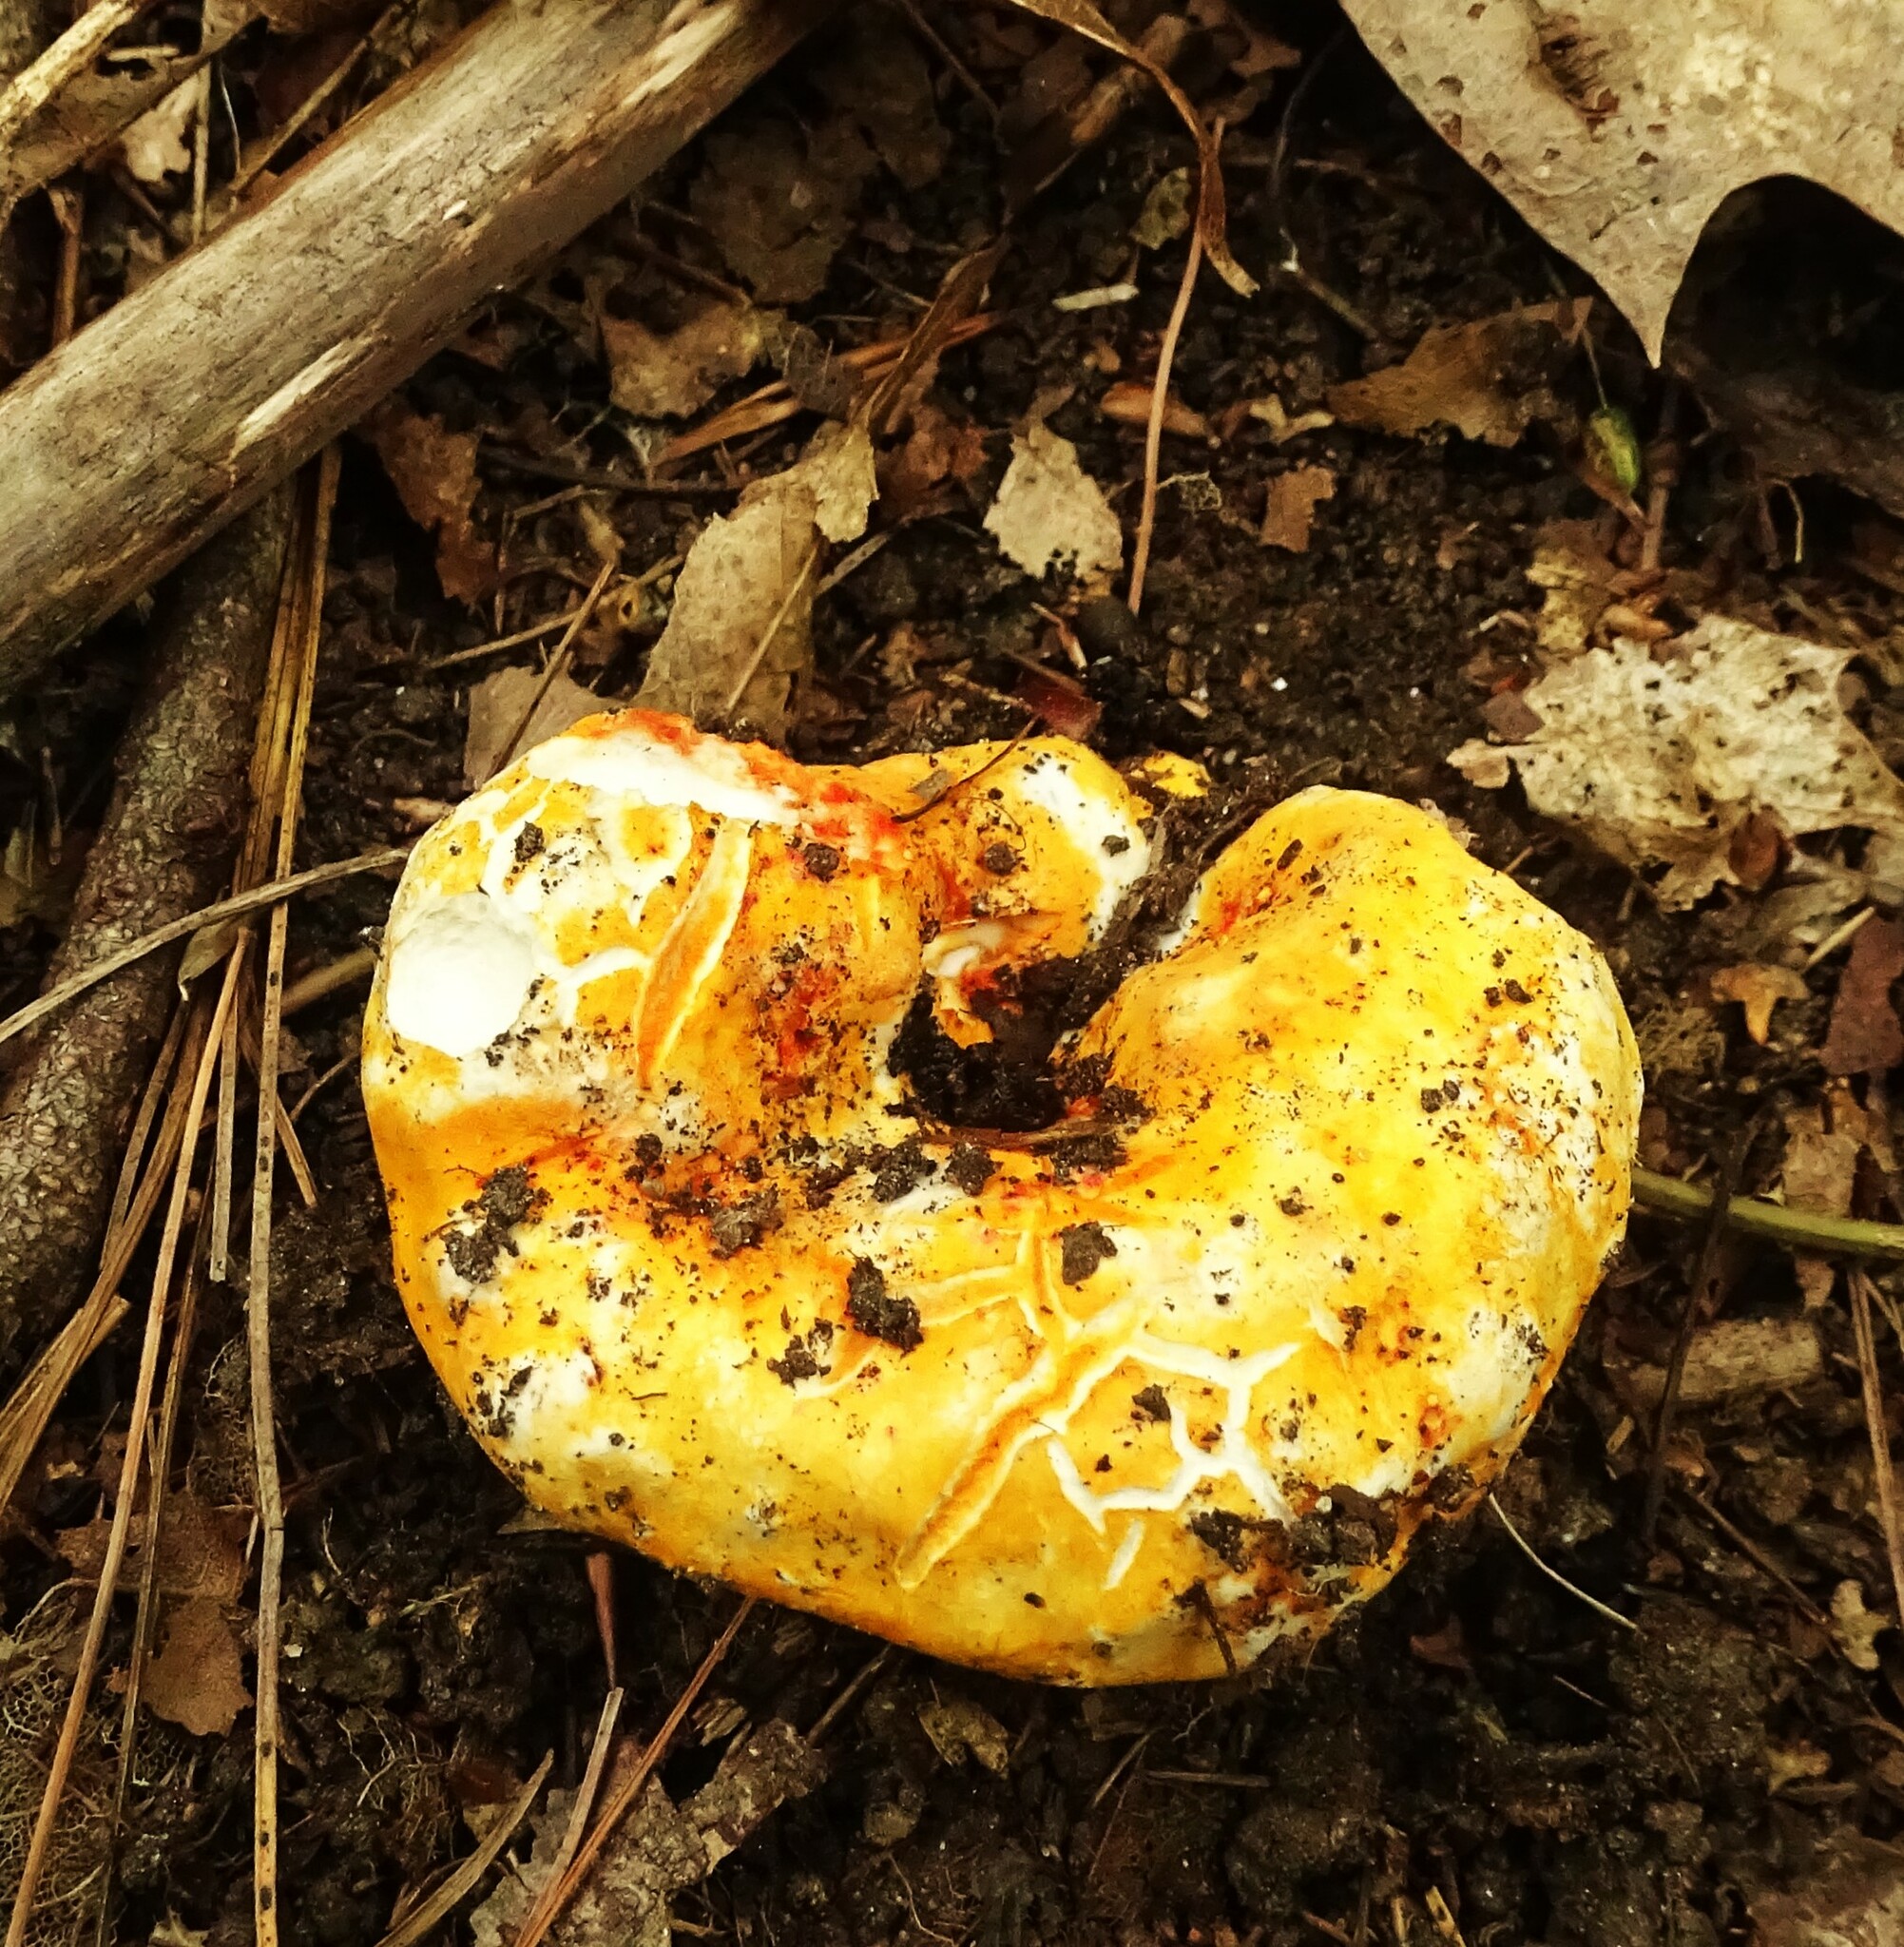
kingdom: Fungi
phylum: Ascomycota
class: Sordariomycetes
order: Hypocreales
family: Hypocreaceae
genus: Hypomyces
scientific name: Hypomyces lactifluorum
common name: Lobster mushroom
